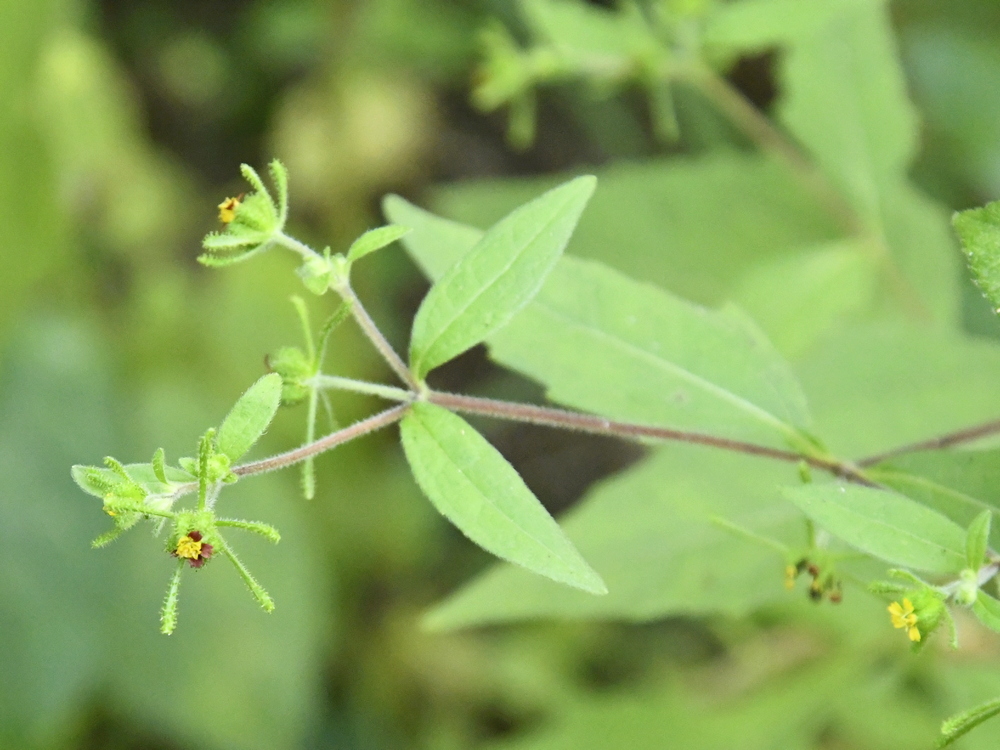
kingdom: Plantae
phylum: Tracheophyta
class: Magnoliopsida
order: Asterales
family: Asteraceae
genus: Sigesbeckia
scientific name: Sigesbeckia orientalis
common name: Eastern st paul's-wort
